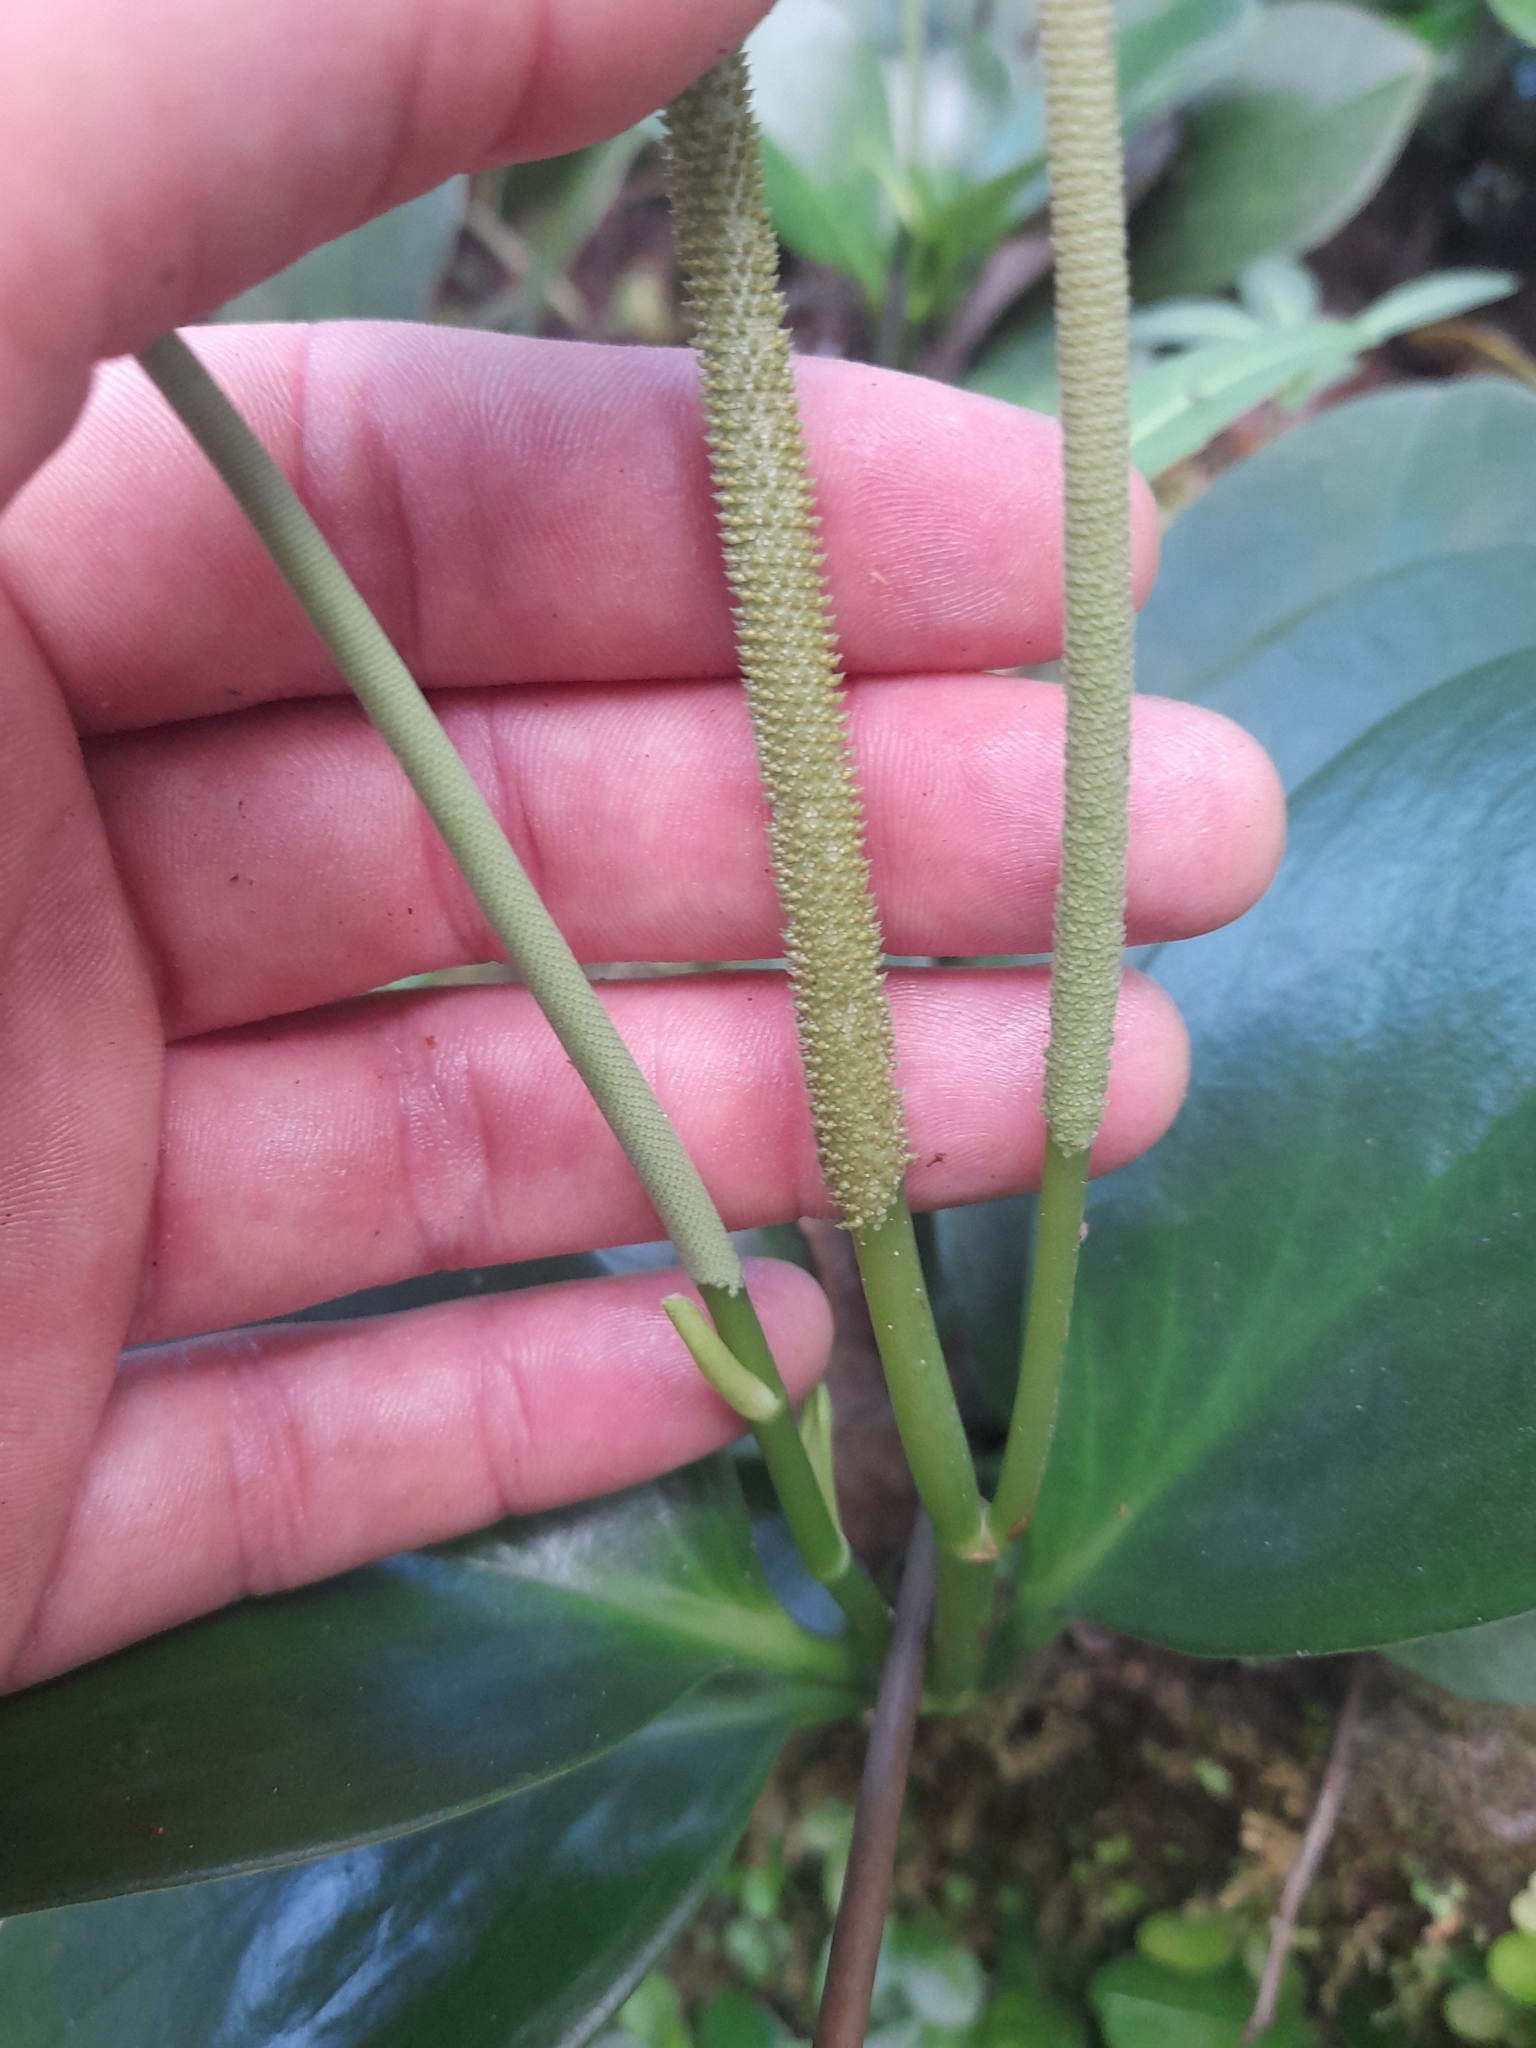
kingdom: Plantae
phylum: Tracheophyta
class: Magnoliopsida
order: Piperales
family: Piperaceae
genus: Peperomia
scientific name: Peperomia magnoliifolia
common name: Spoonleaf peperomia
